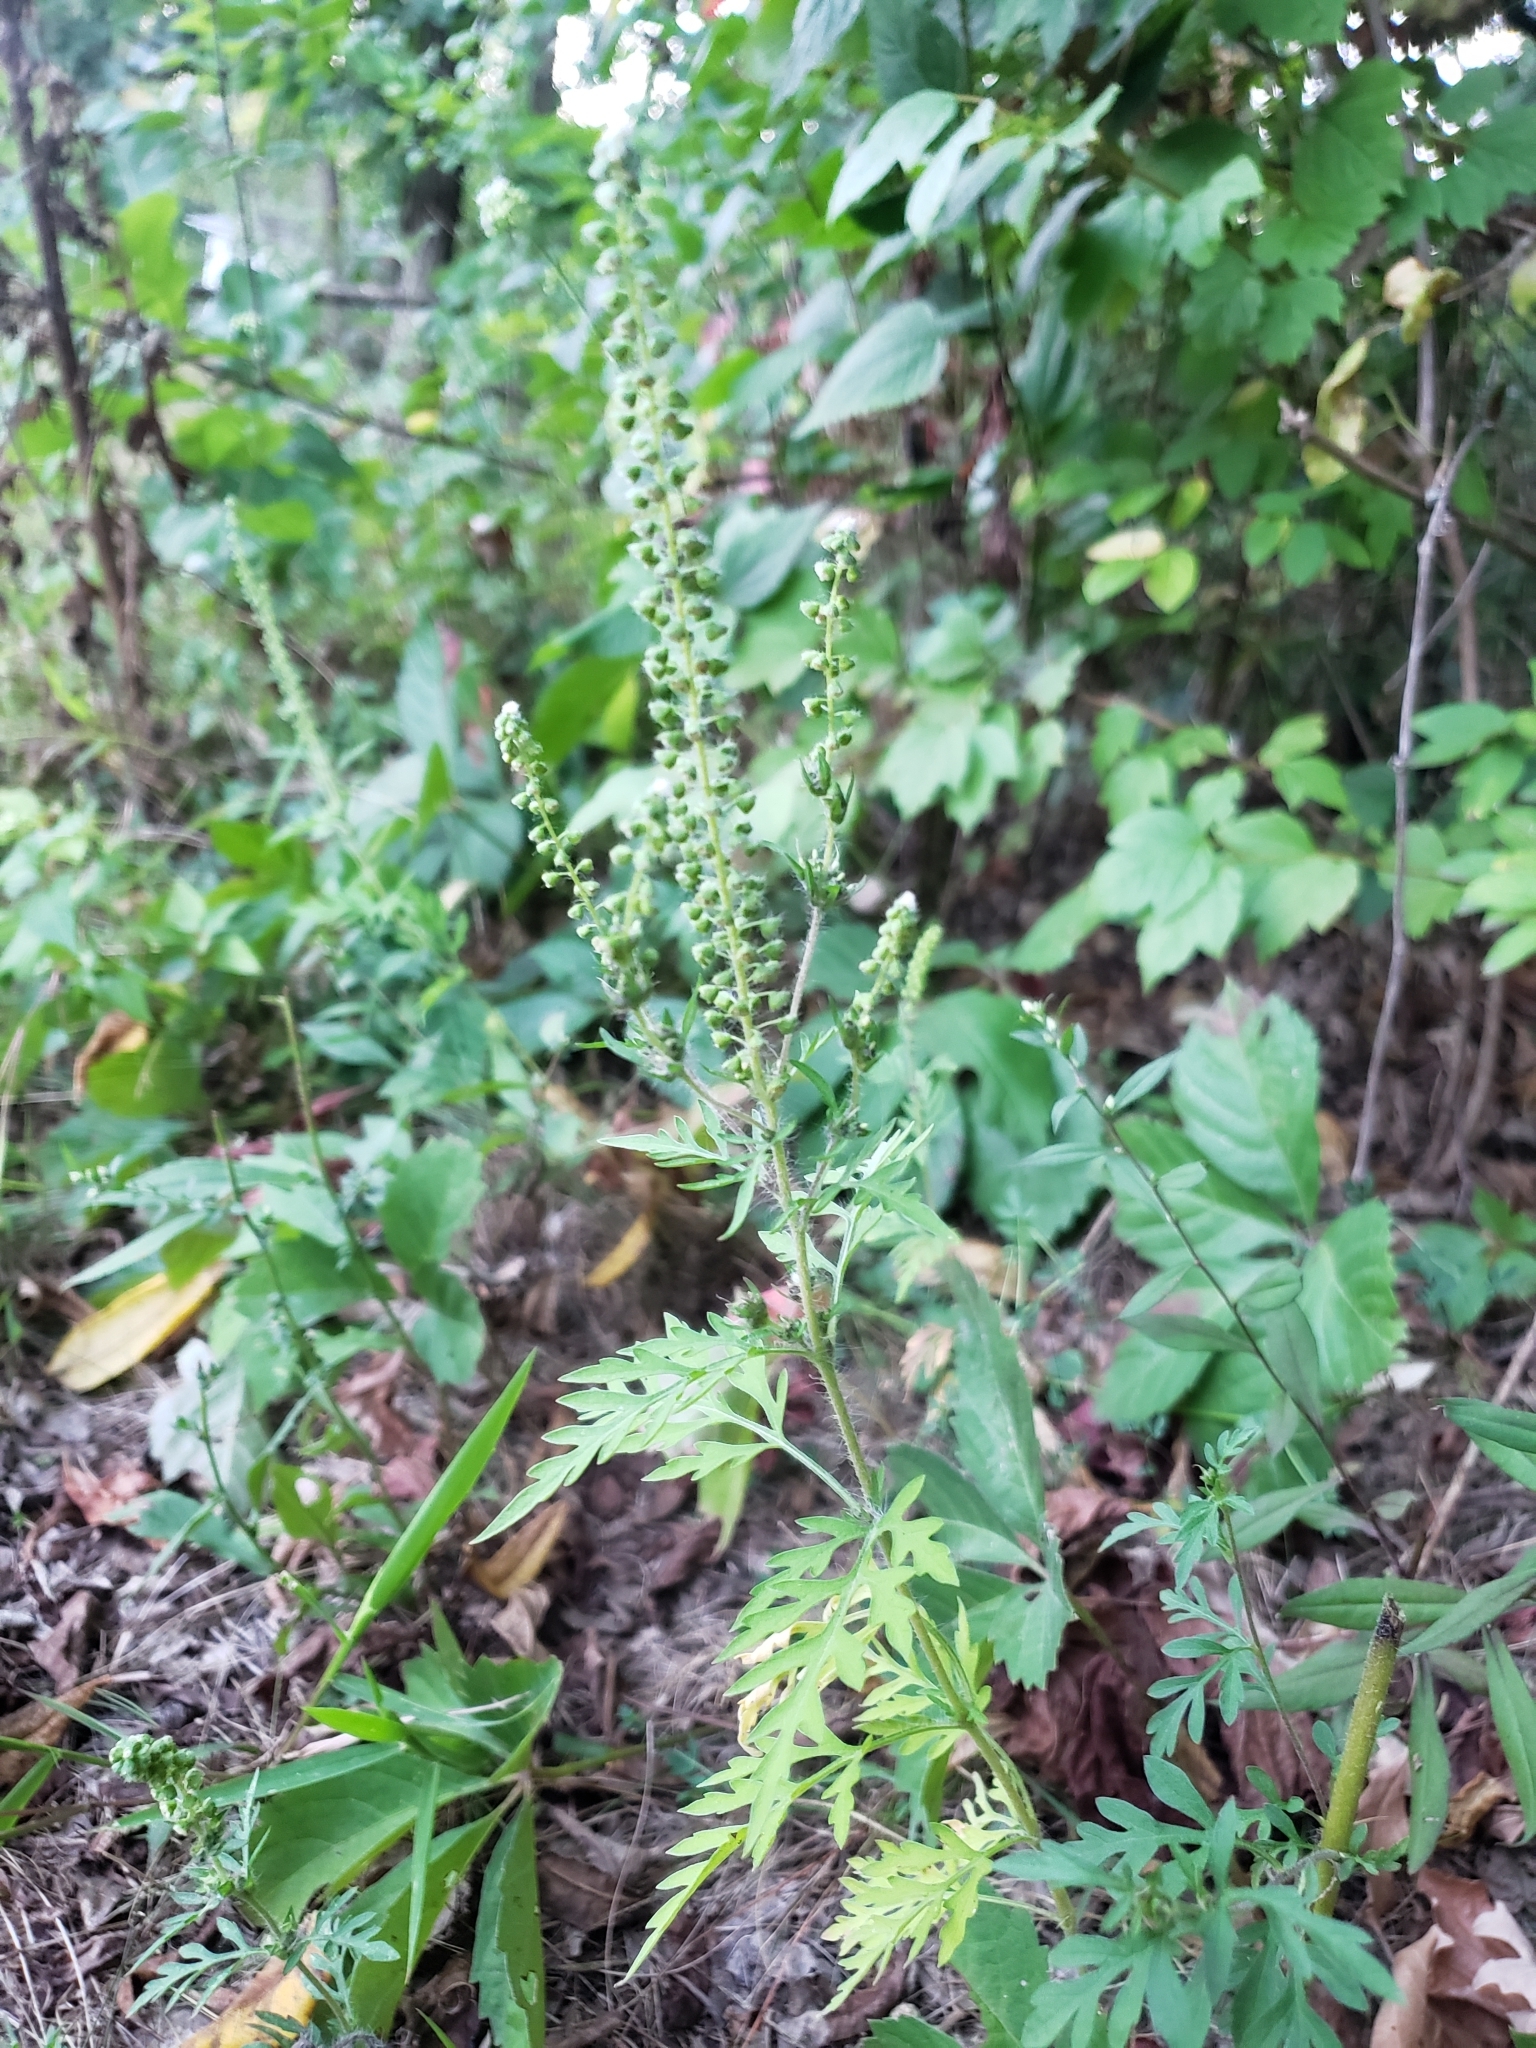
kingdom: Plantae
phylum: Tracheophyta
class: Magnoliopsida
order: Asterales
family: Asteraceae
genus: Ambrosia
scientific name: Ambrosia artemisiifolia
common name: Annual ragweed
